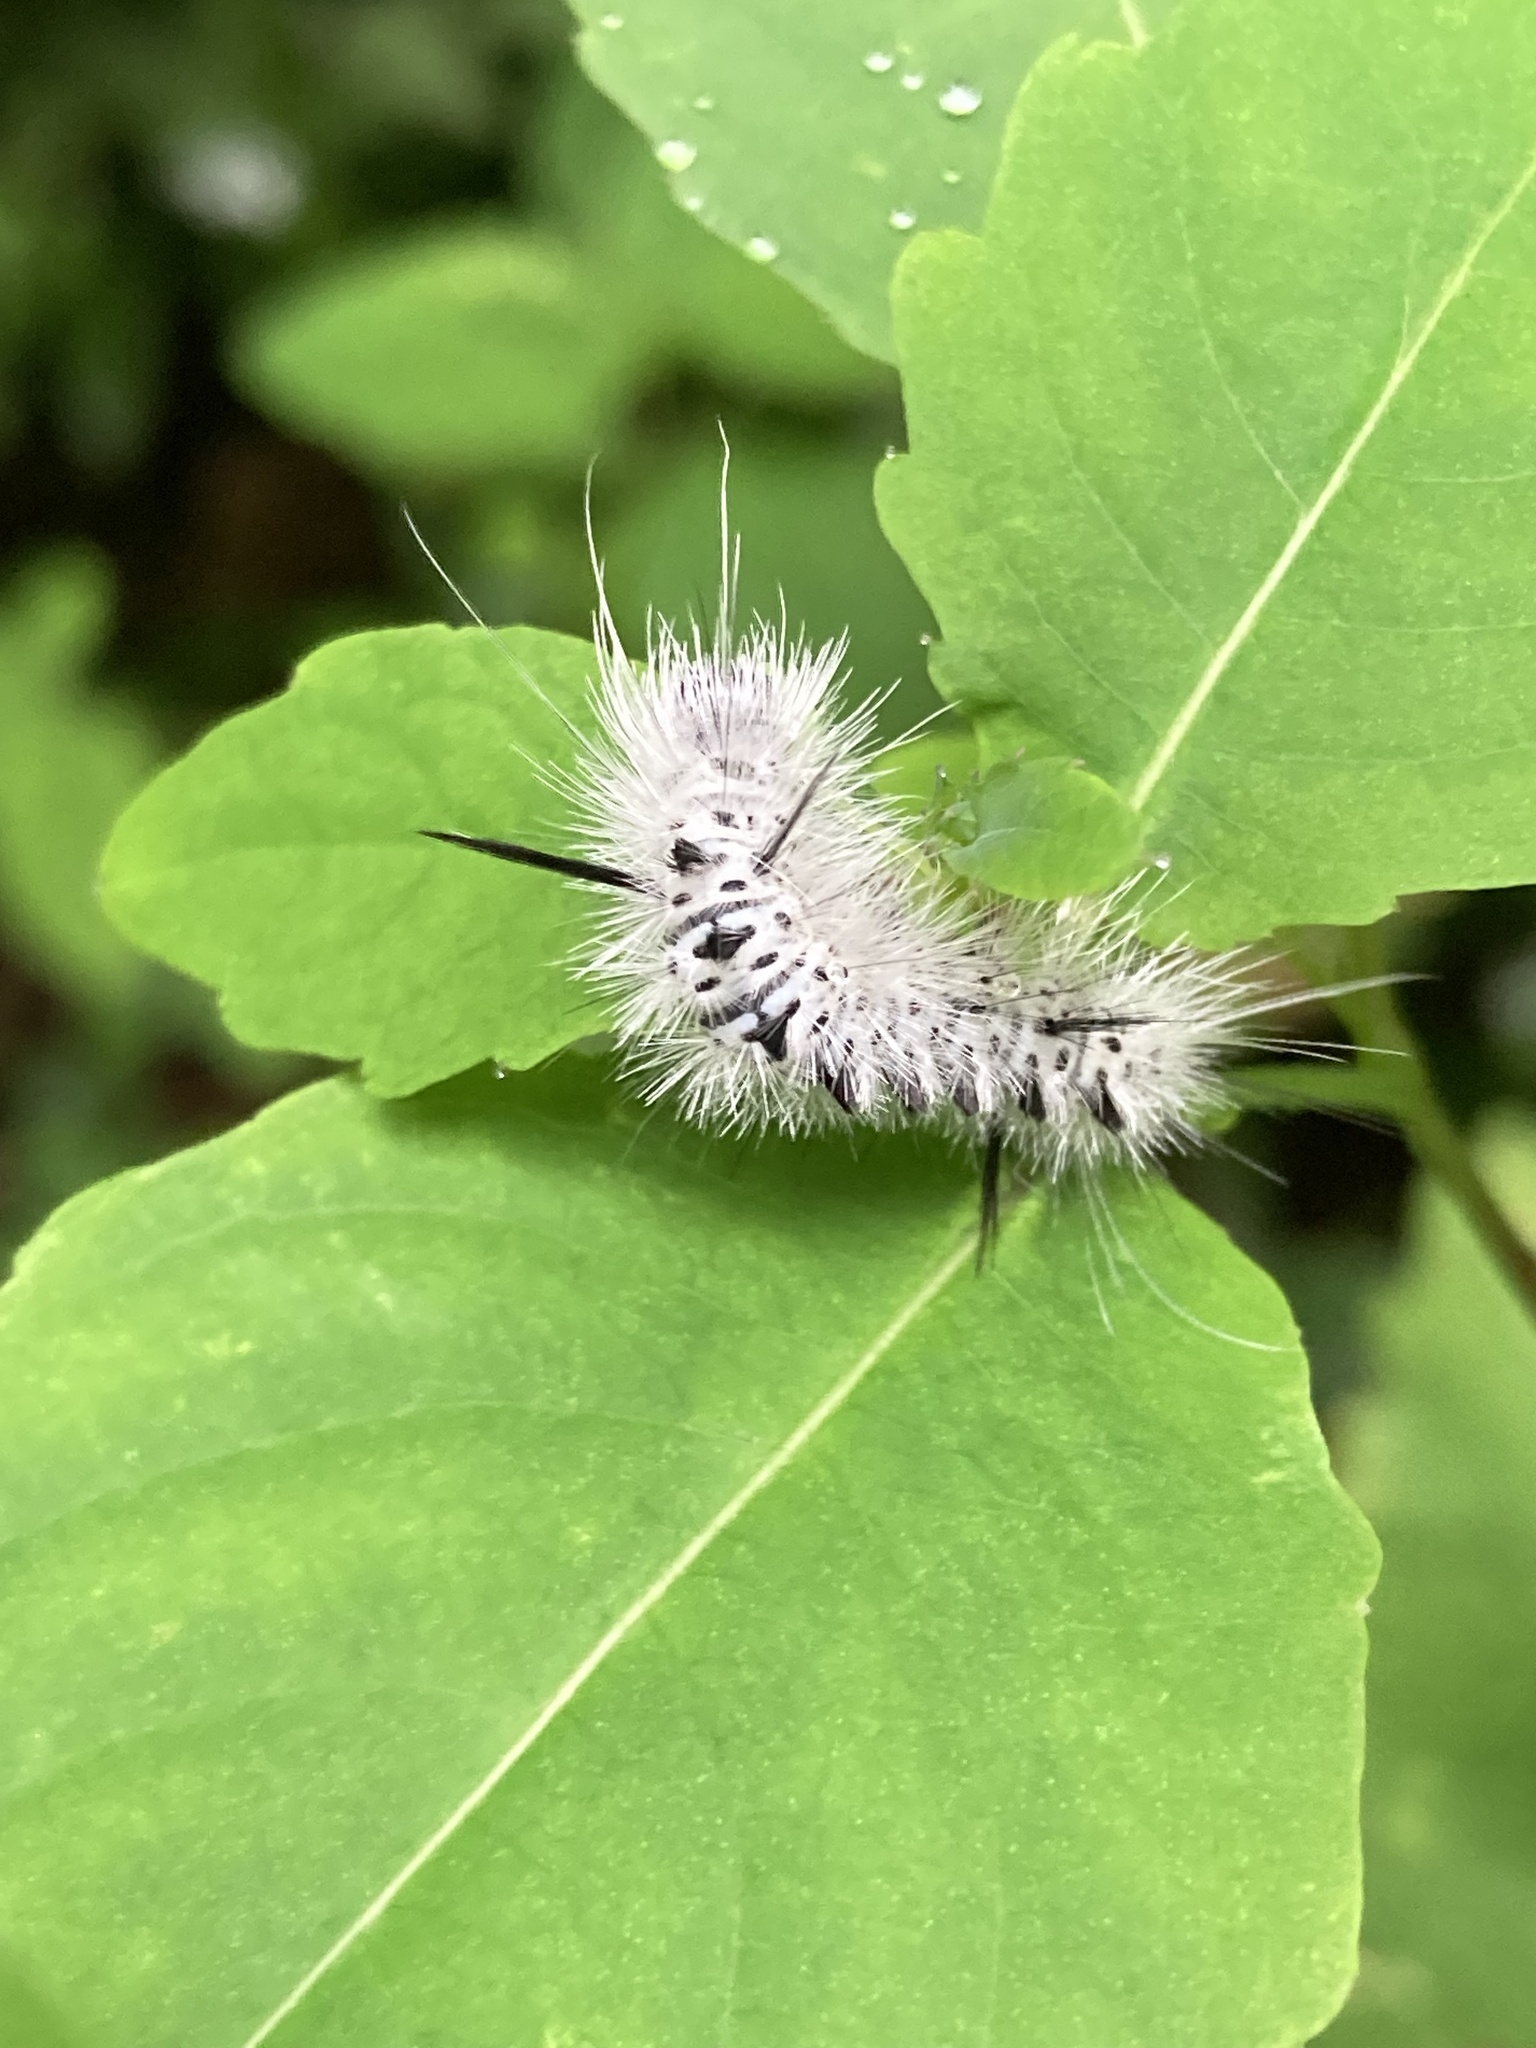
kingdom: Animalia
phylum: Arthropoda
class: Insecta
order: Lepidoptera
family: Erebidae
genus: Lophocampa
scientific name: Lophocampa caryae
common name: Hickory tussock moth
